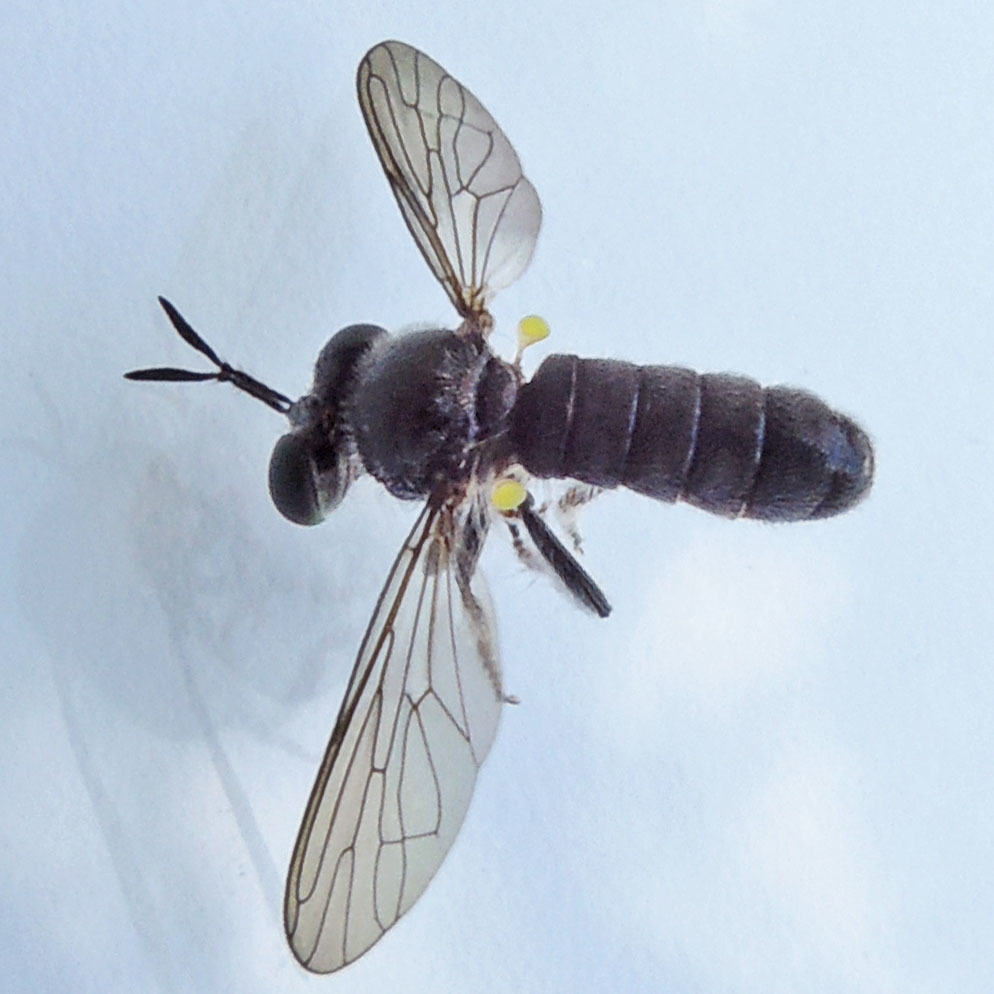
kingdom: Animalia
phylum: Arthropoda
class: Insecta
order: Diptera
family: Asilidae
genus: Cerotainia
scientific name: Cerotainia albipilosa
